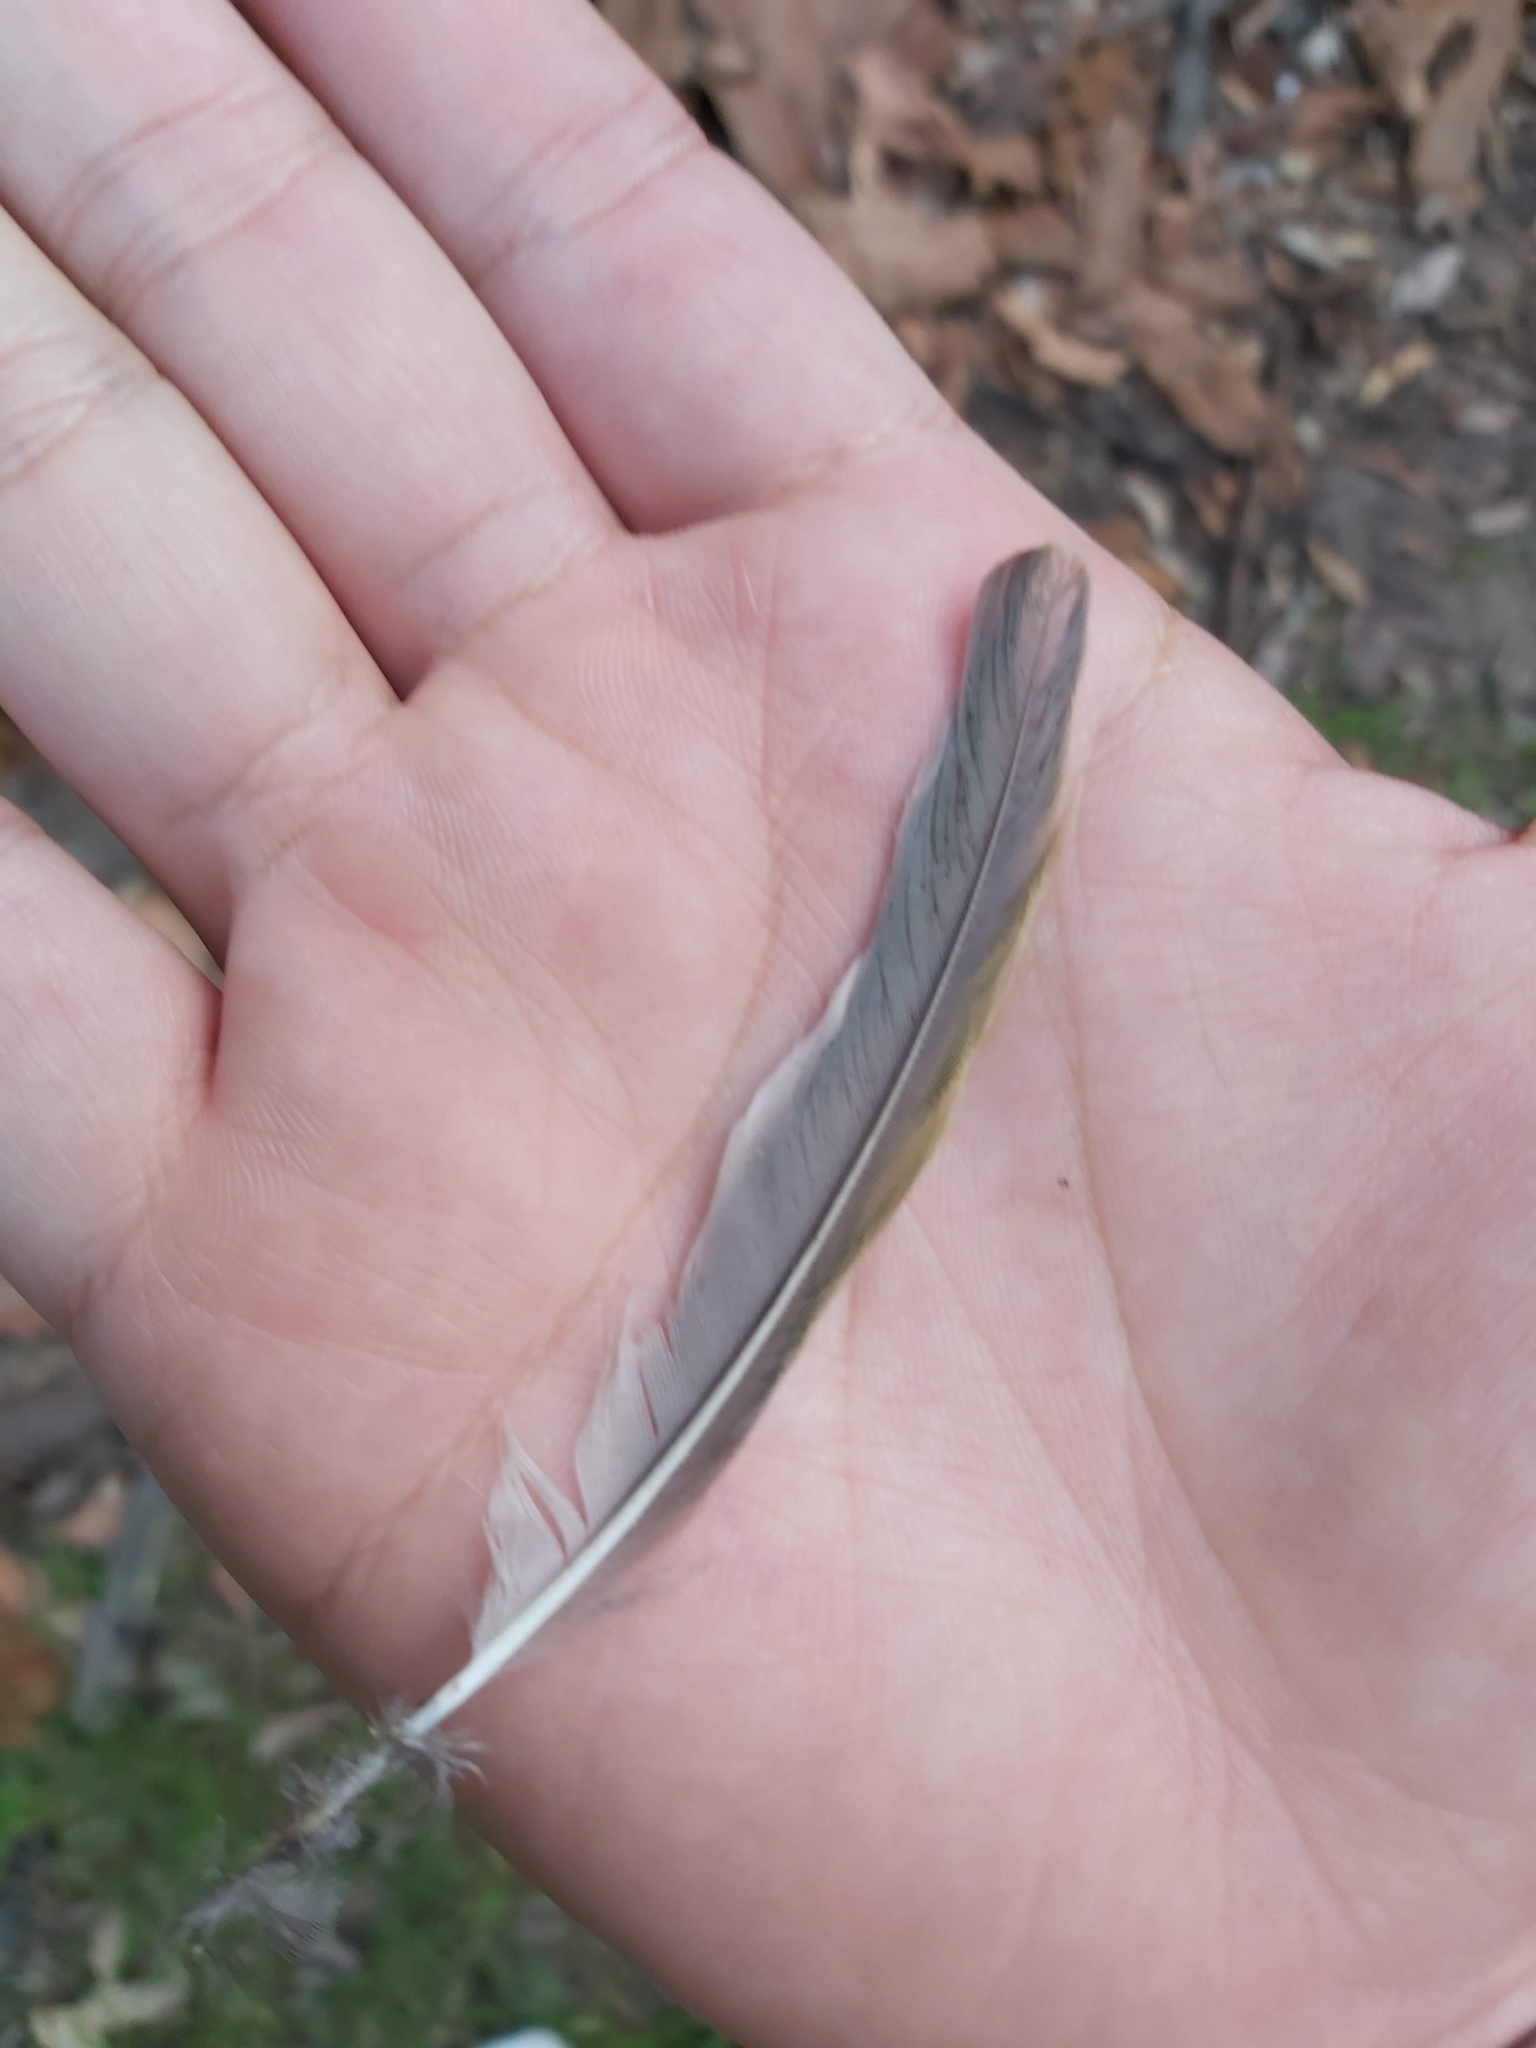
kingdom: Animalia
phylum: Chordata
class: Aves
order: Passeriformes
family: Meliphagidae
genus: Manorina
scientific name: Manorina melanocephala
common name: Noisy miner
